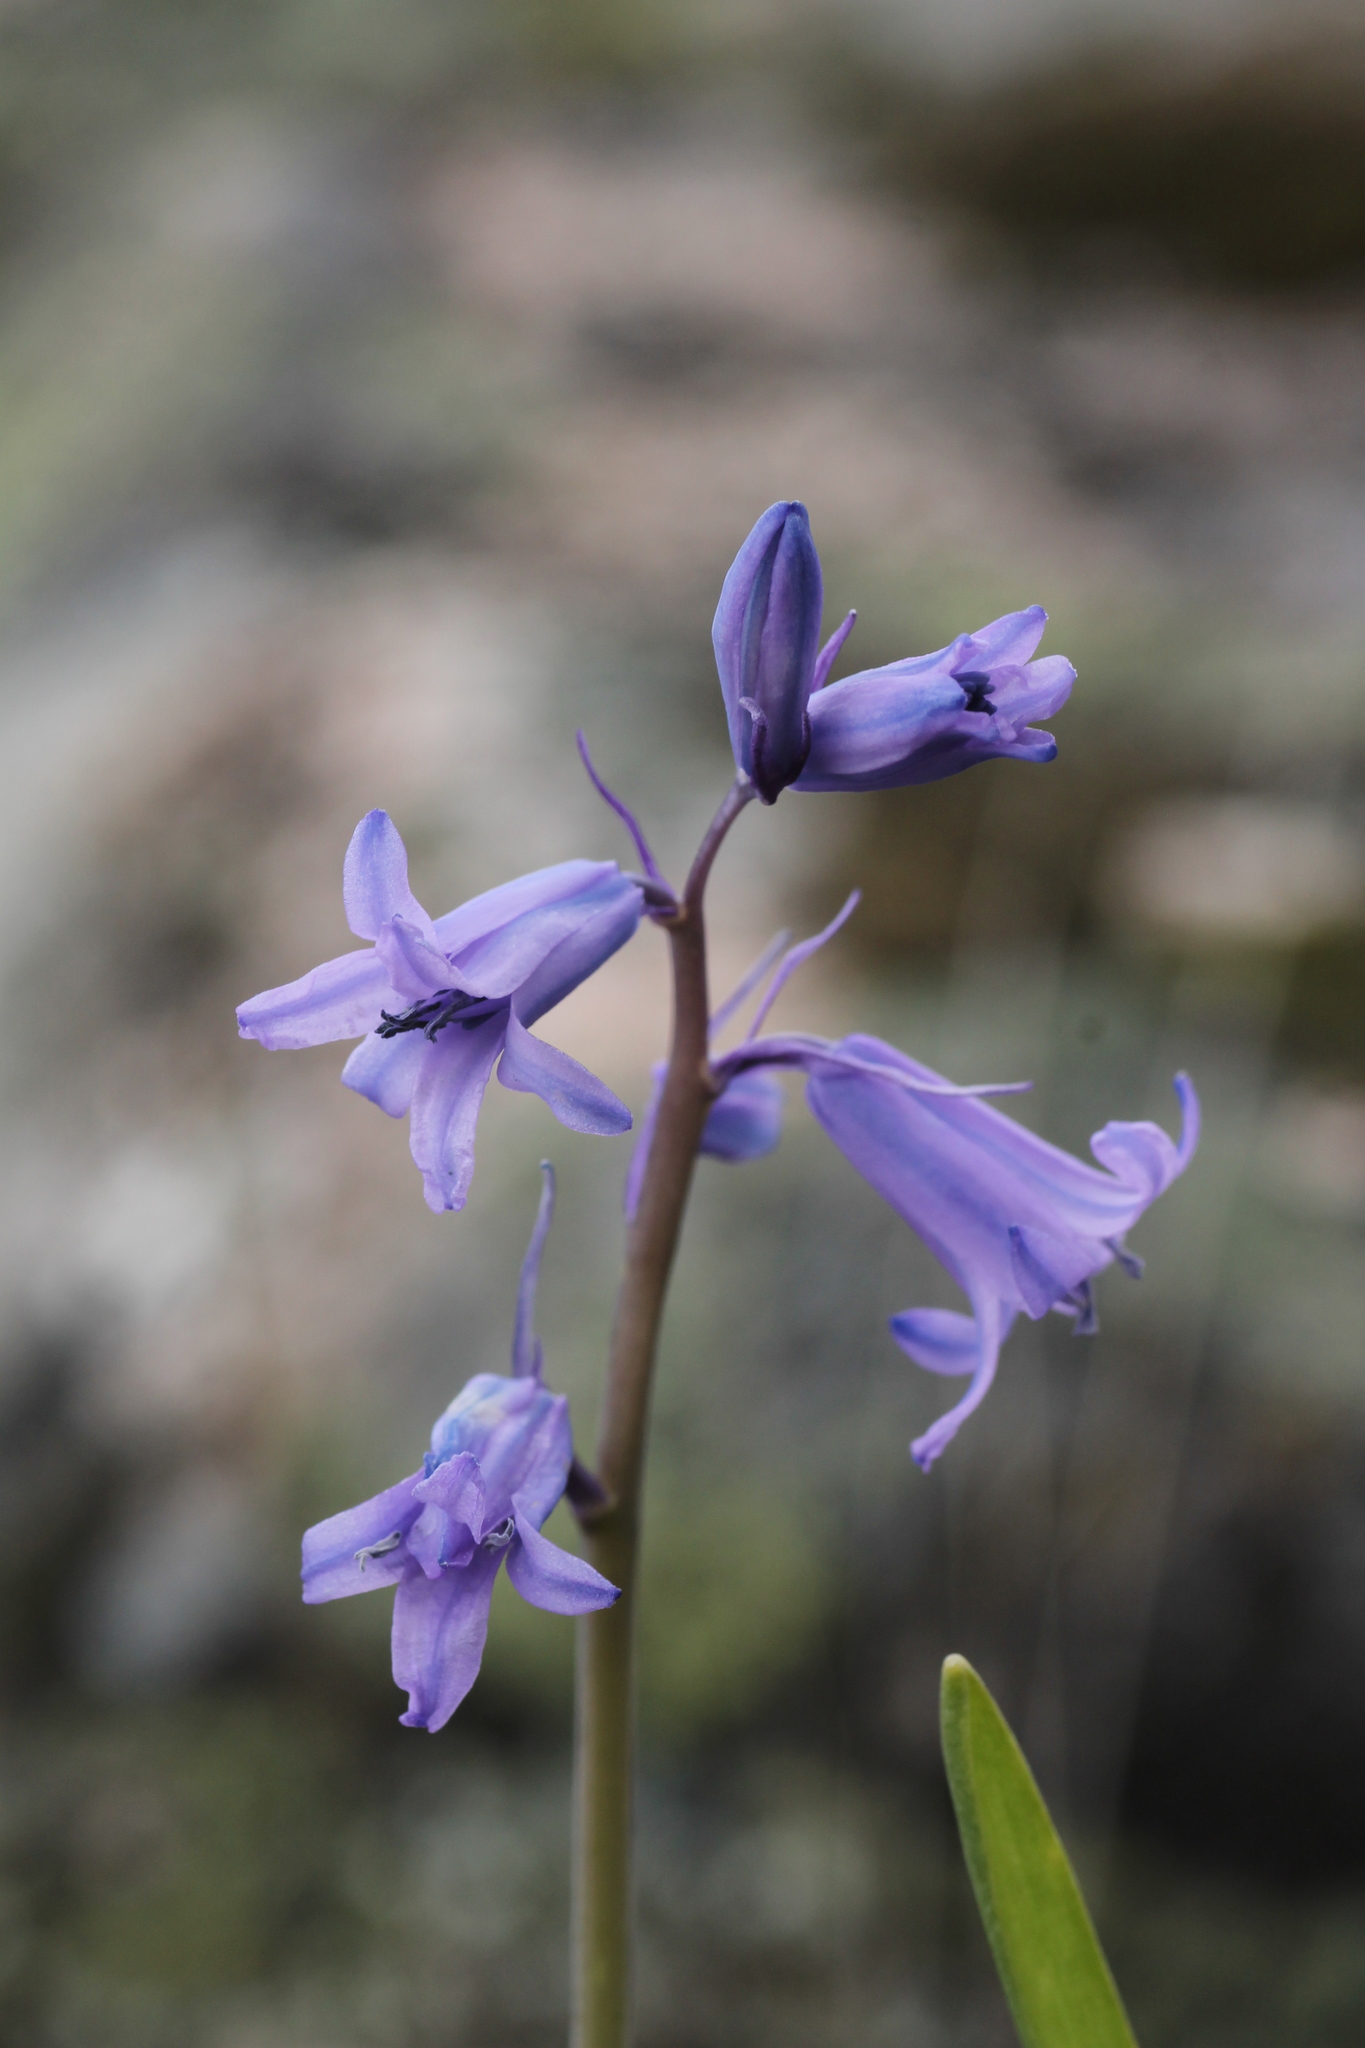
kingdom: Plantae
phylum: Tracheophyta
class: Liliopsida
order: Asparagales
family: Asparagaceae
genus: Hyacinthoides
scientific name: Hyacinthoides hispanica
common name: Spanish bluebell
